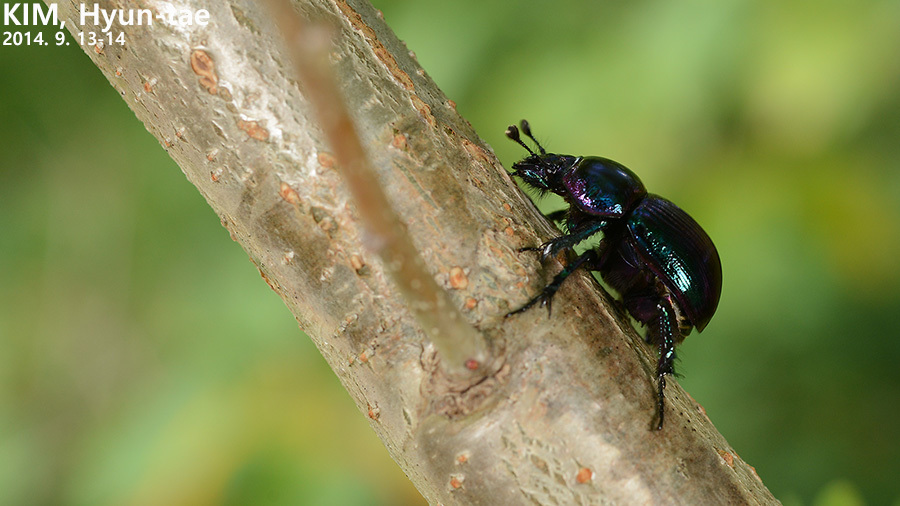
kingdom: Animalia
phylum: Arthropoda
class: Insecta
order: Coleoptera
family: Geotrupidae
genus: Phelotrupes
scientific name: Phelotrupes auratus
